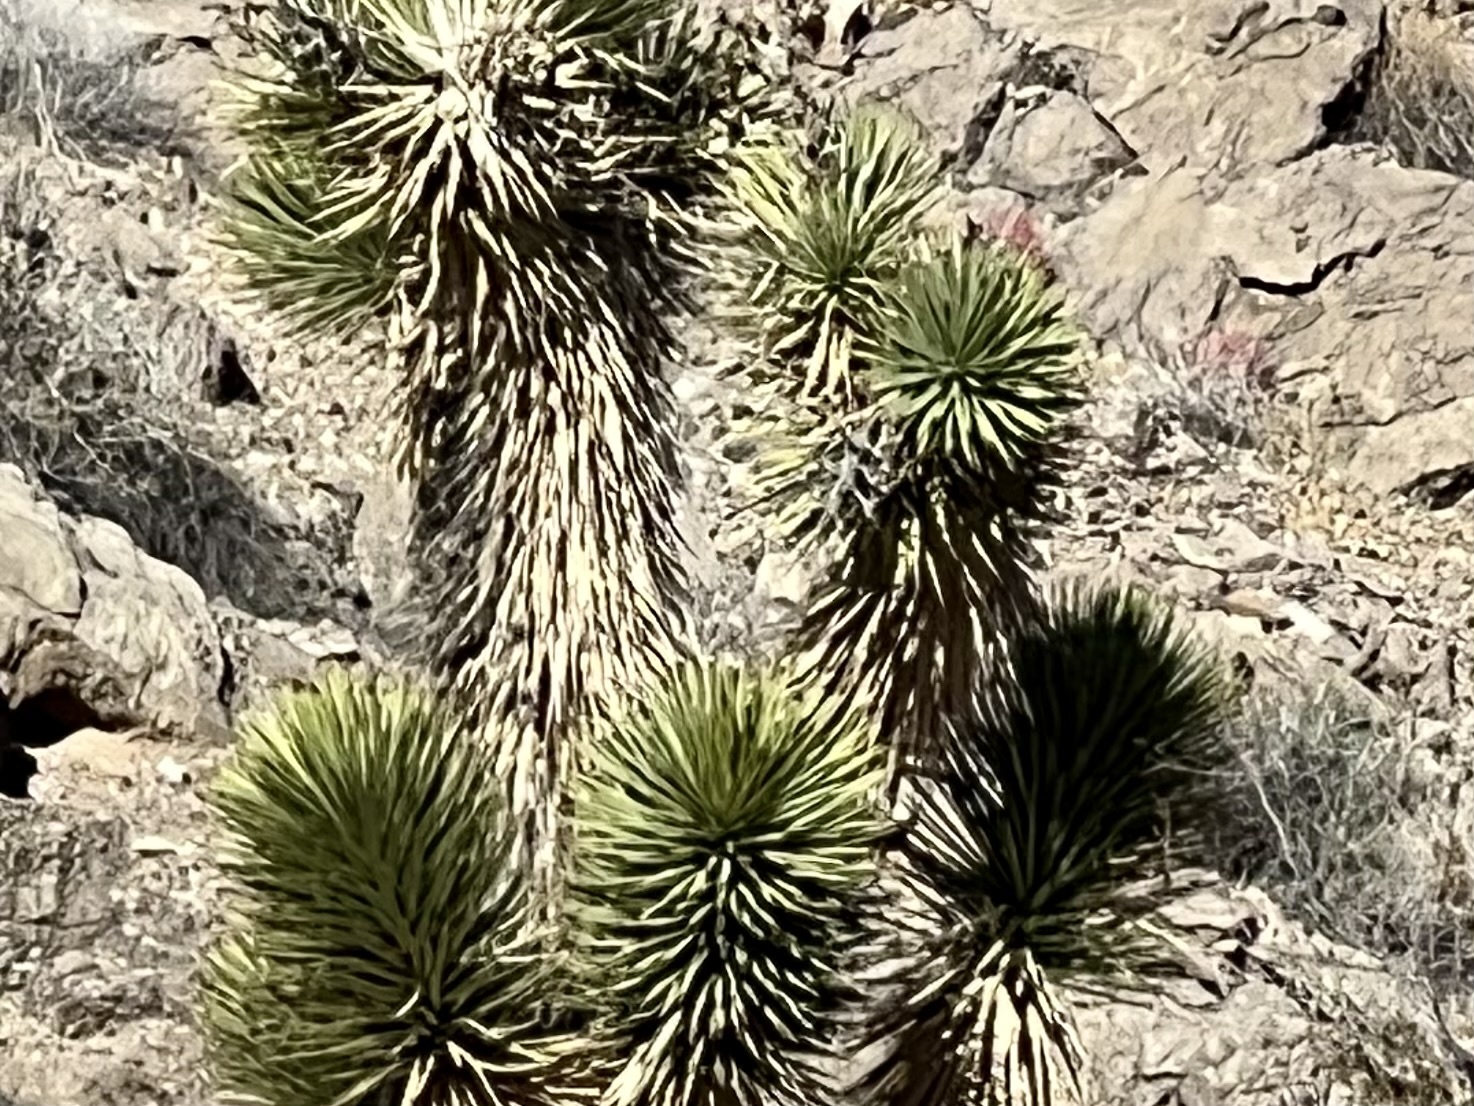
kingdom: Plantae
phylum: Tracheophyta
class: Liliopsida
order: Asparagales
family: Asparagaceae
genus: Yucca
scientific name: Yucca brevifolia
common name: Joshua tree
